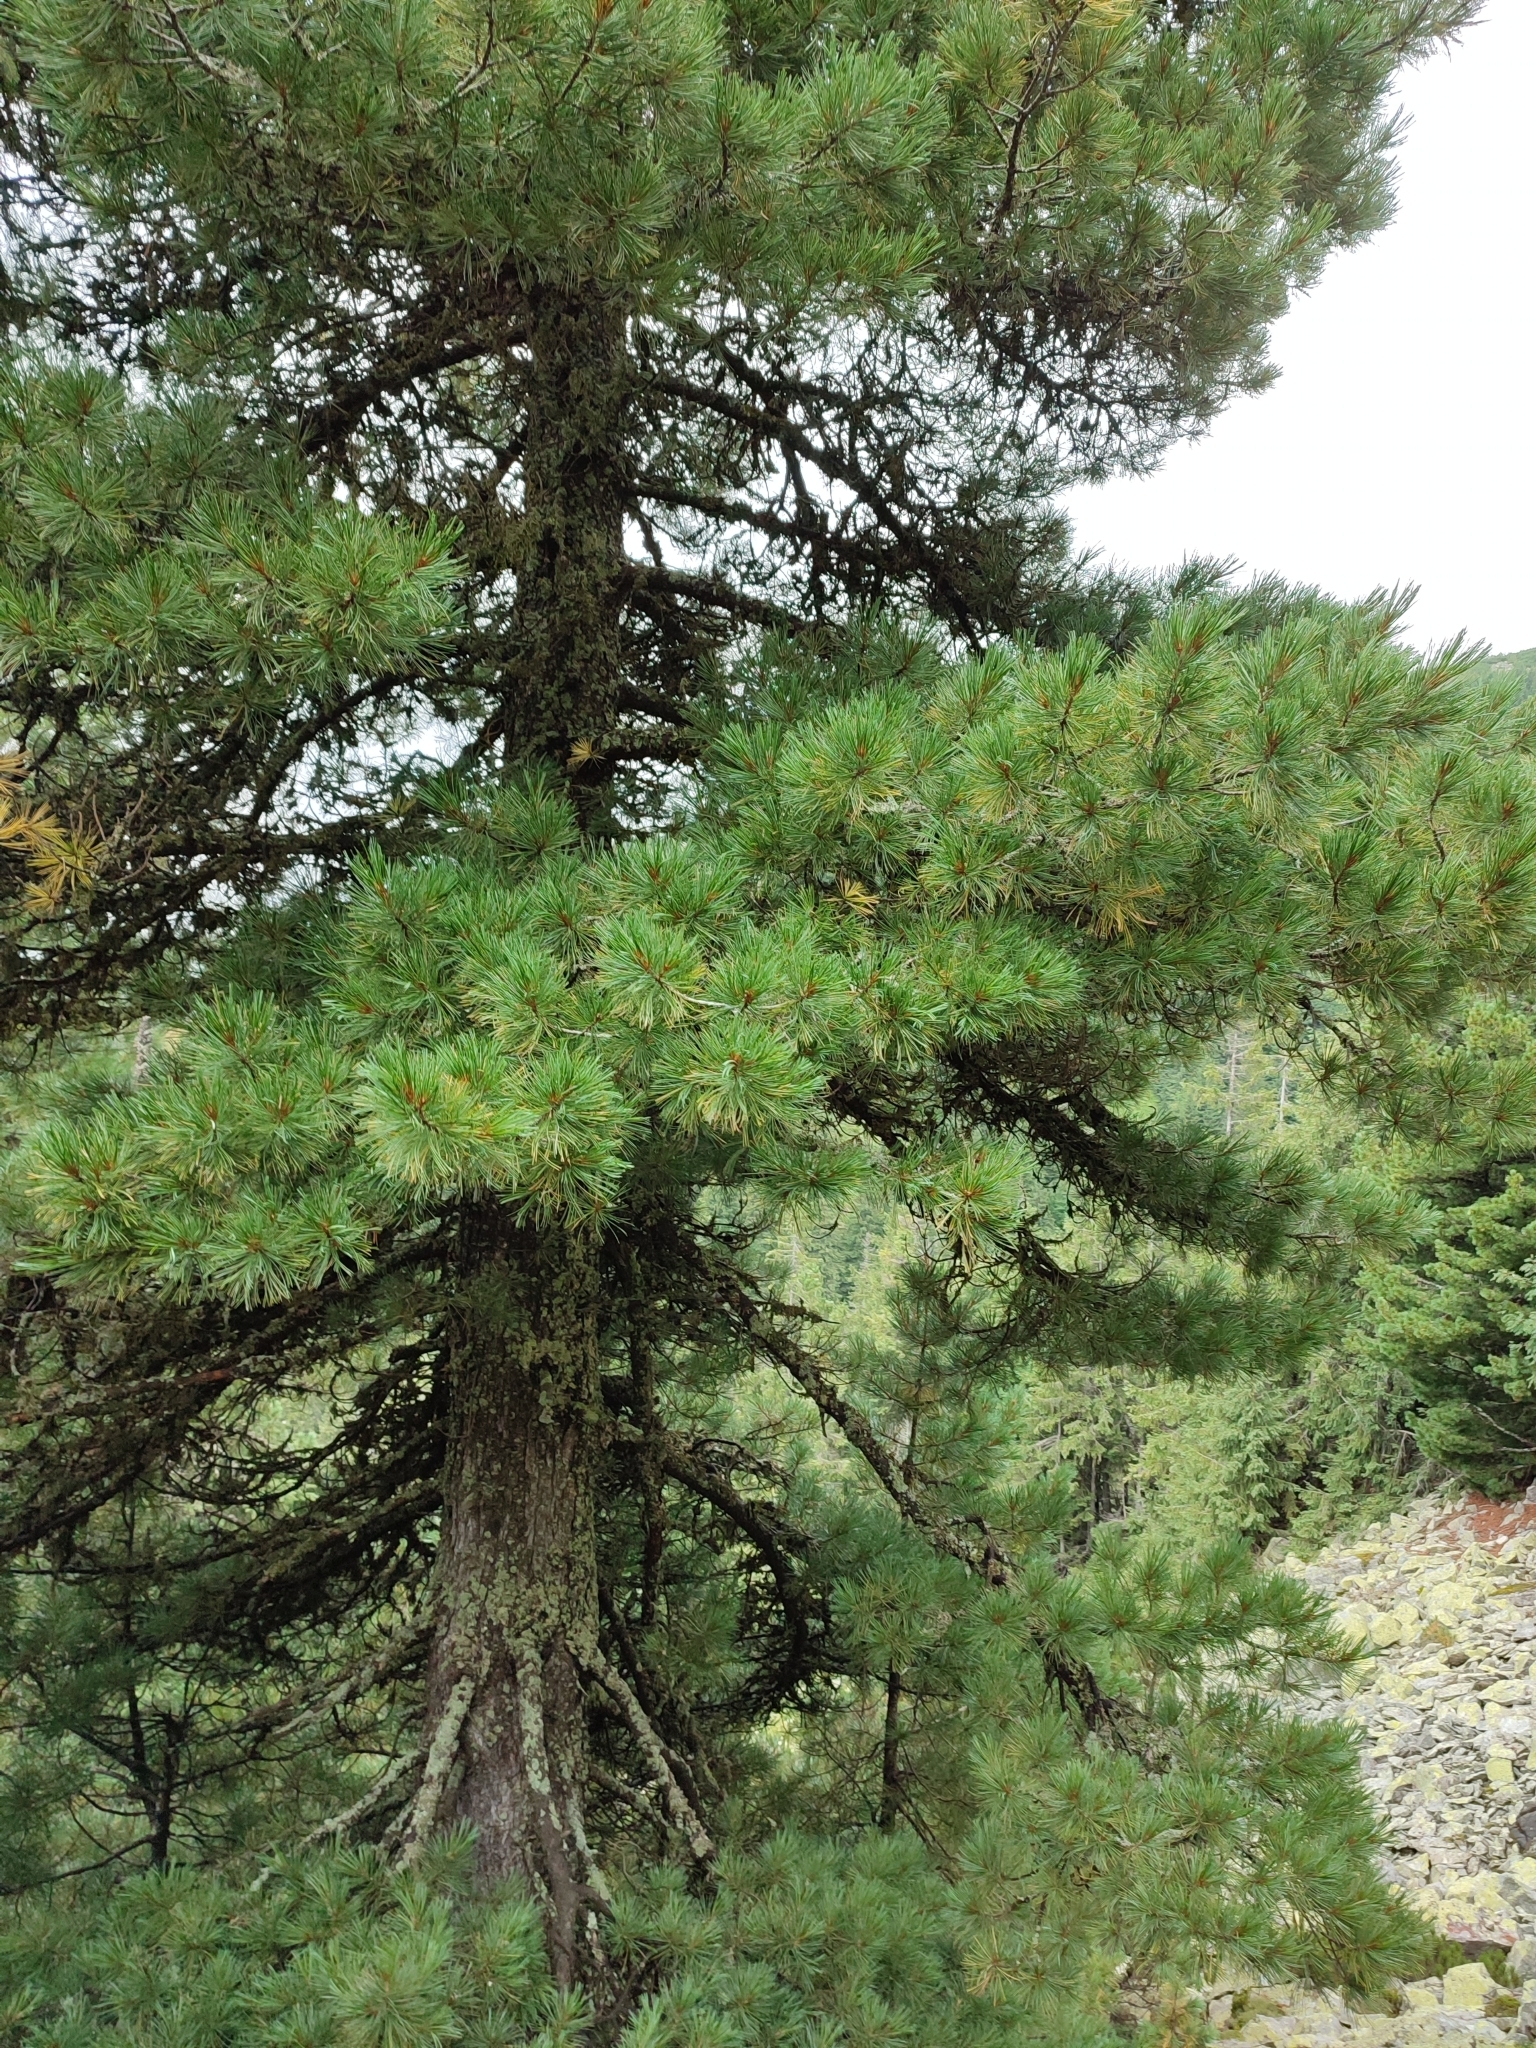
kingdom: Plantae
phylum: Tracheophyta
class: Pinopsida
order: Pinales
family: Pinaceae
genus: Pinus
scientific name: Pinus cembra
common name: Arolla pine
